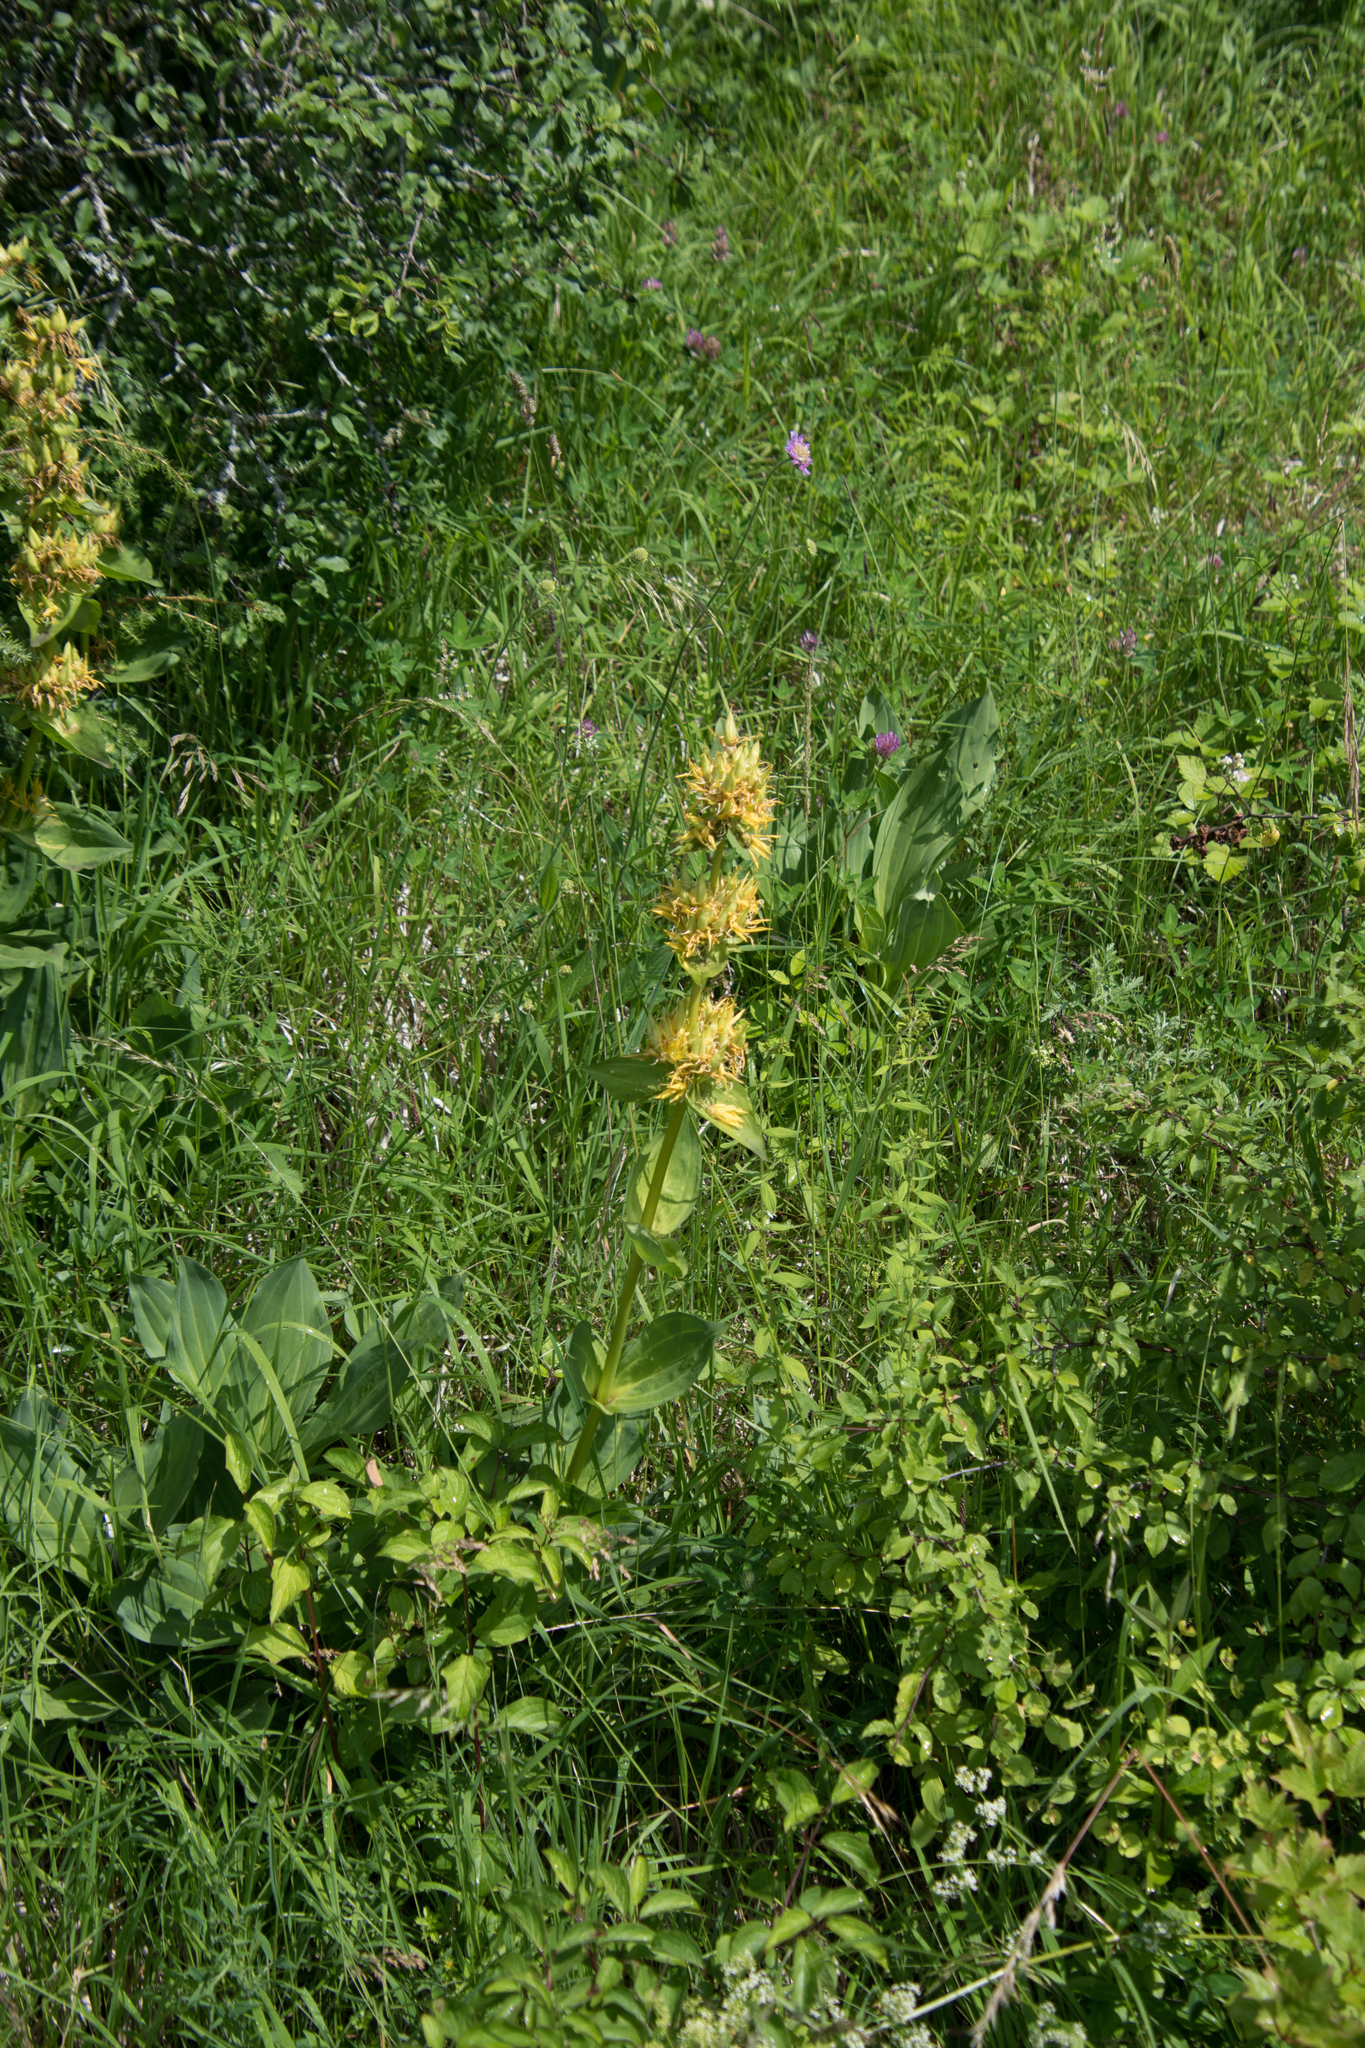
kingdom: Plantae
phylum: Tracheophyta
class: Magnoliopsida
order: Gentianales
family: Gentianaceae
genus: Gentiana
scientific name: Gentiana lutea
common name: Great yellow gentian
